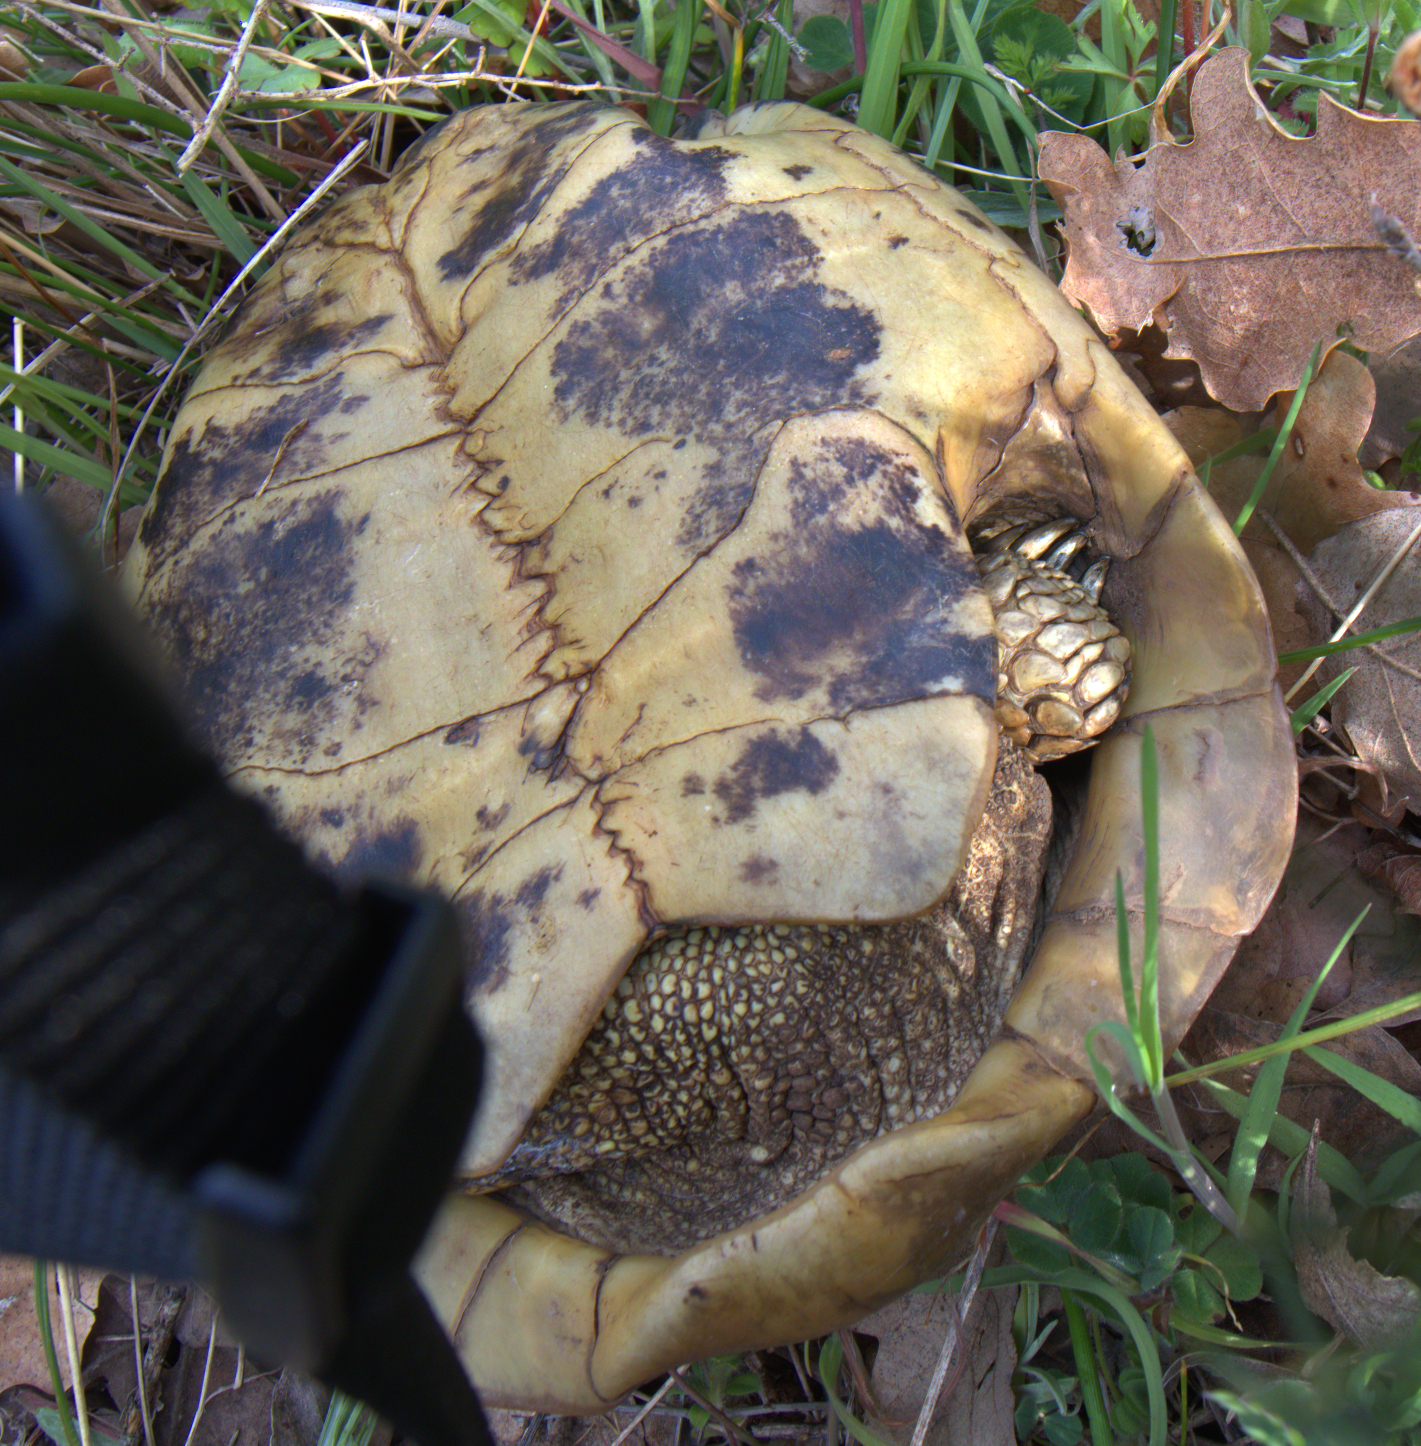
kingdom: Animalia
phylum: Chordata
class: Testudines
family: Testudinidae
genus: Testudo
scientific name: Testudo hermanni
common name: Hermann's tortoise
